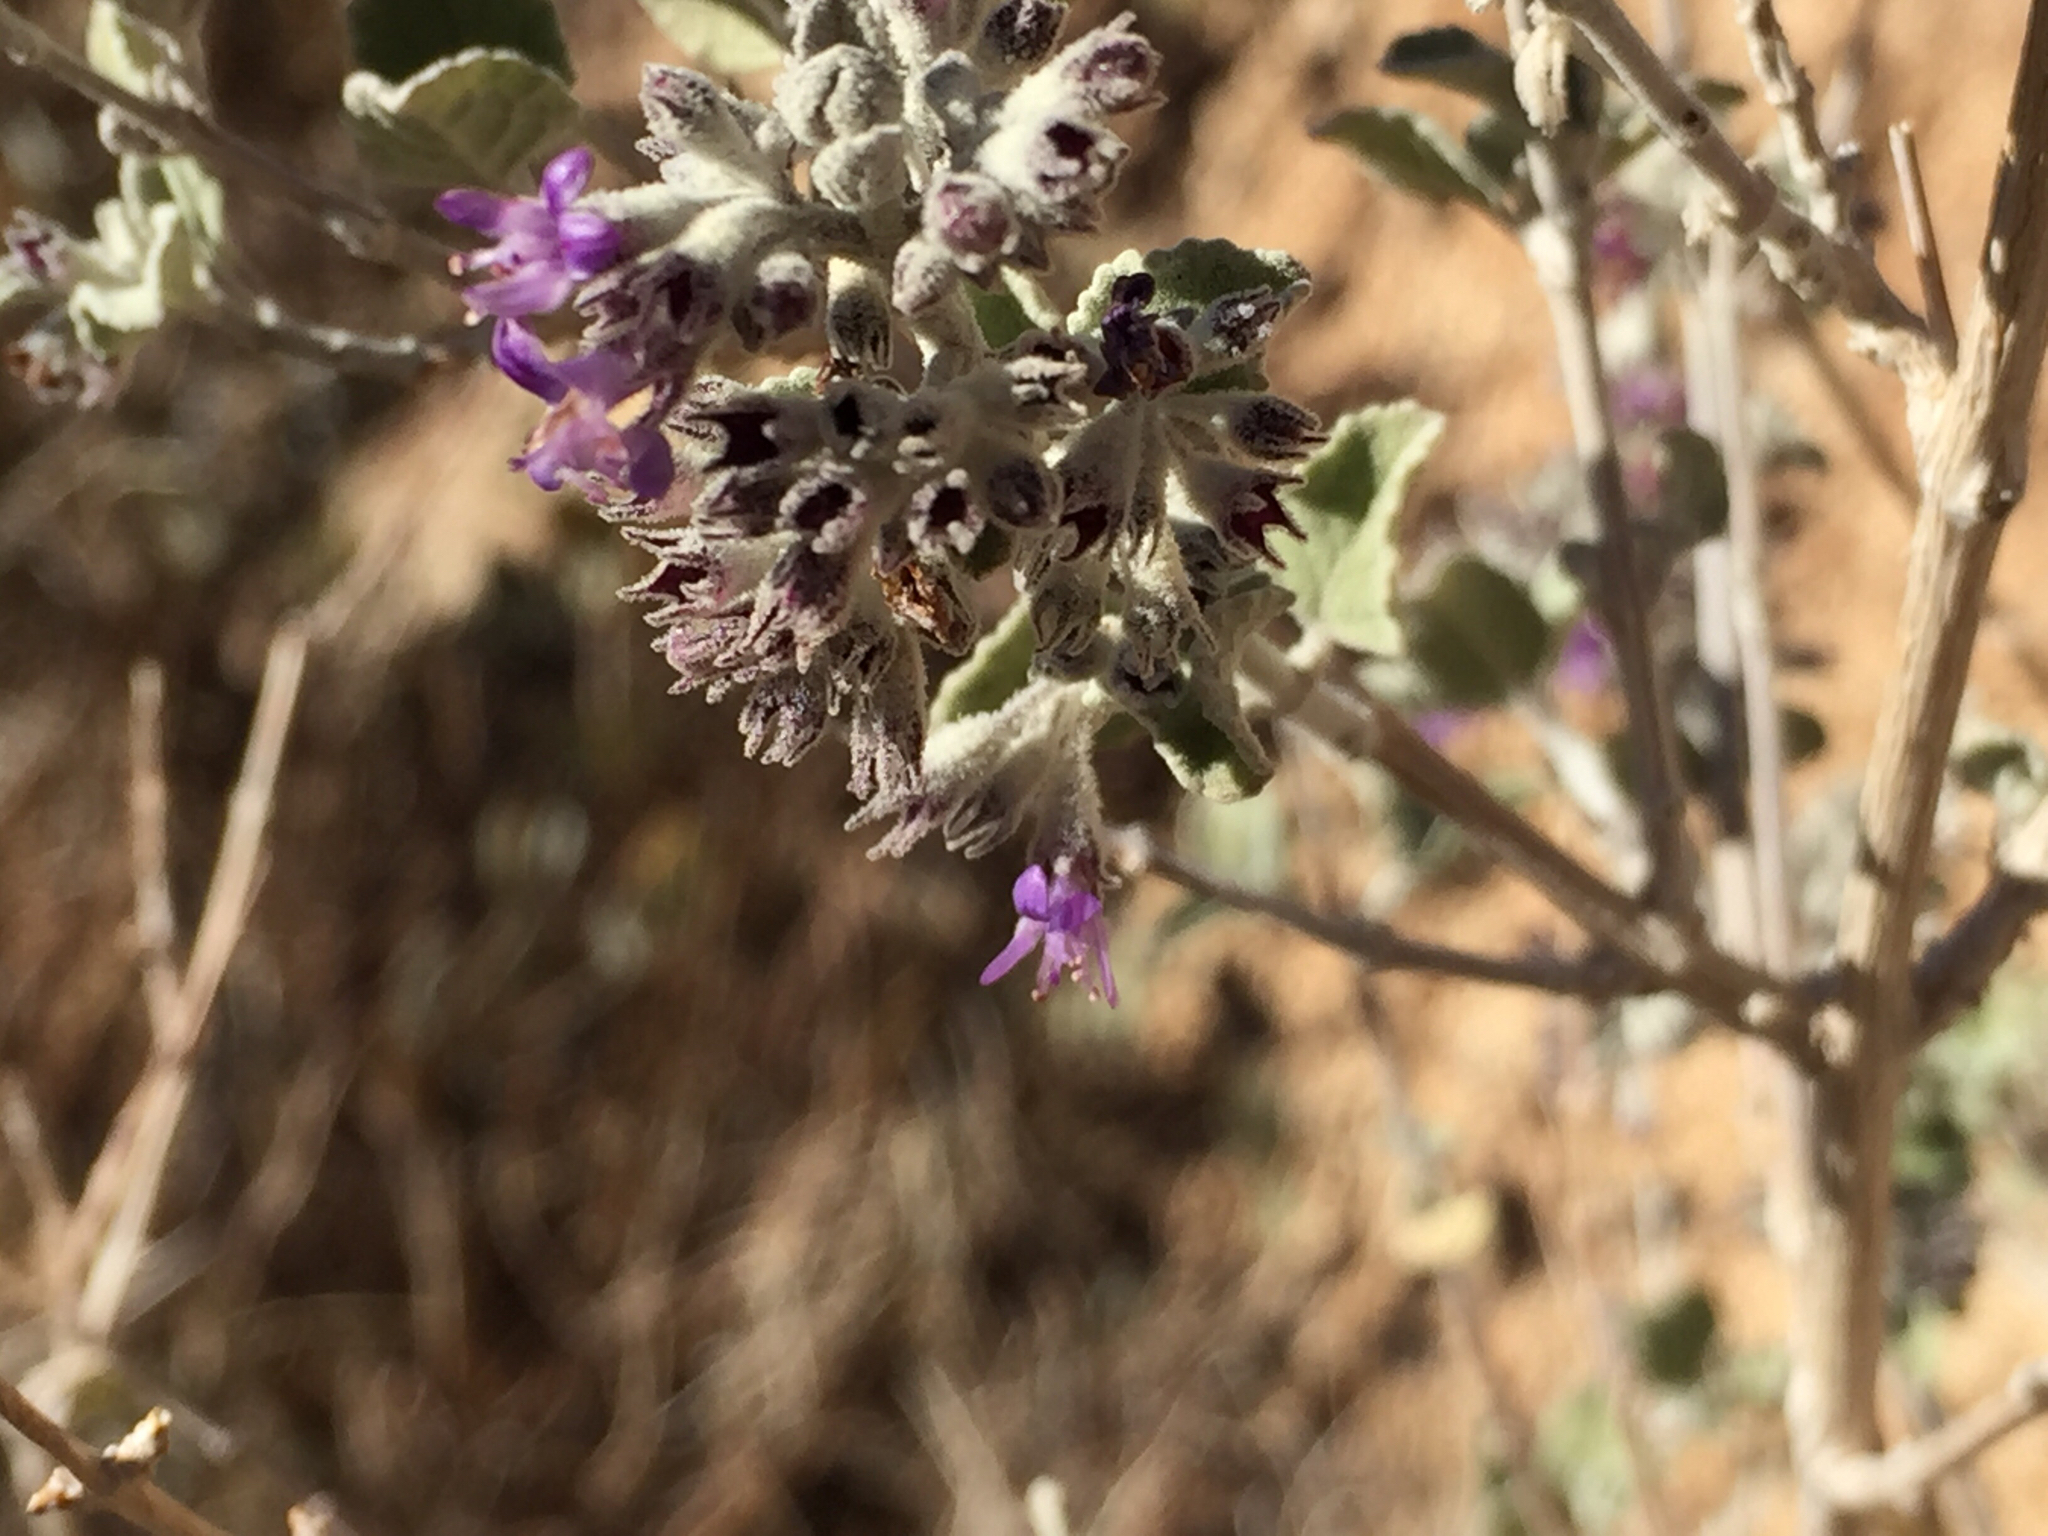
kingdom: Plantae
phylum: Tracheophyta
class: Magnoliopsida
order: Lamiales
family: Lamiaceae
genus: Condea
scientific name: Condea emoryi
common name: Chia
